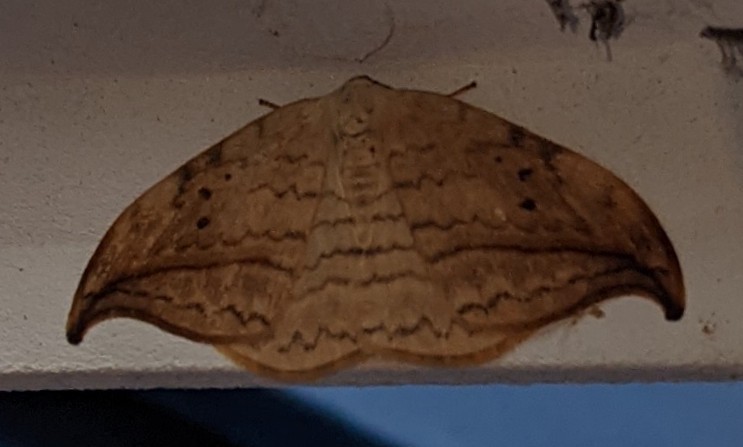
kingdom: Animalia
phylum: Arthropoda
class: Insecta
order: Lepidoptera
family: Drepanidae
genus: Drepana
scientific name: Drepana arcuata
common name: Arched hooktip moth
